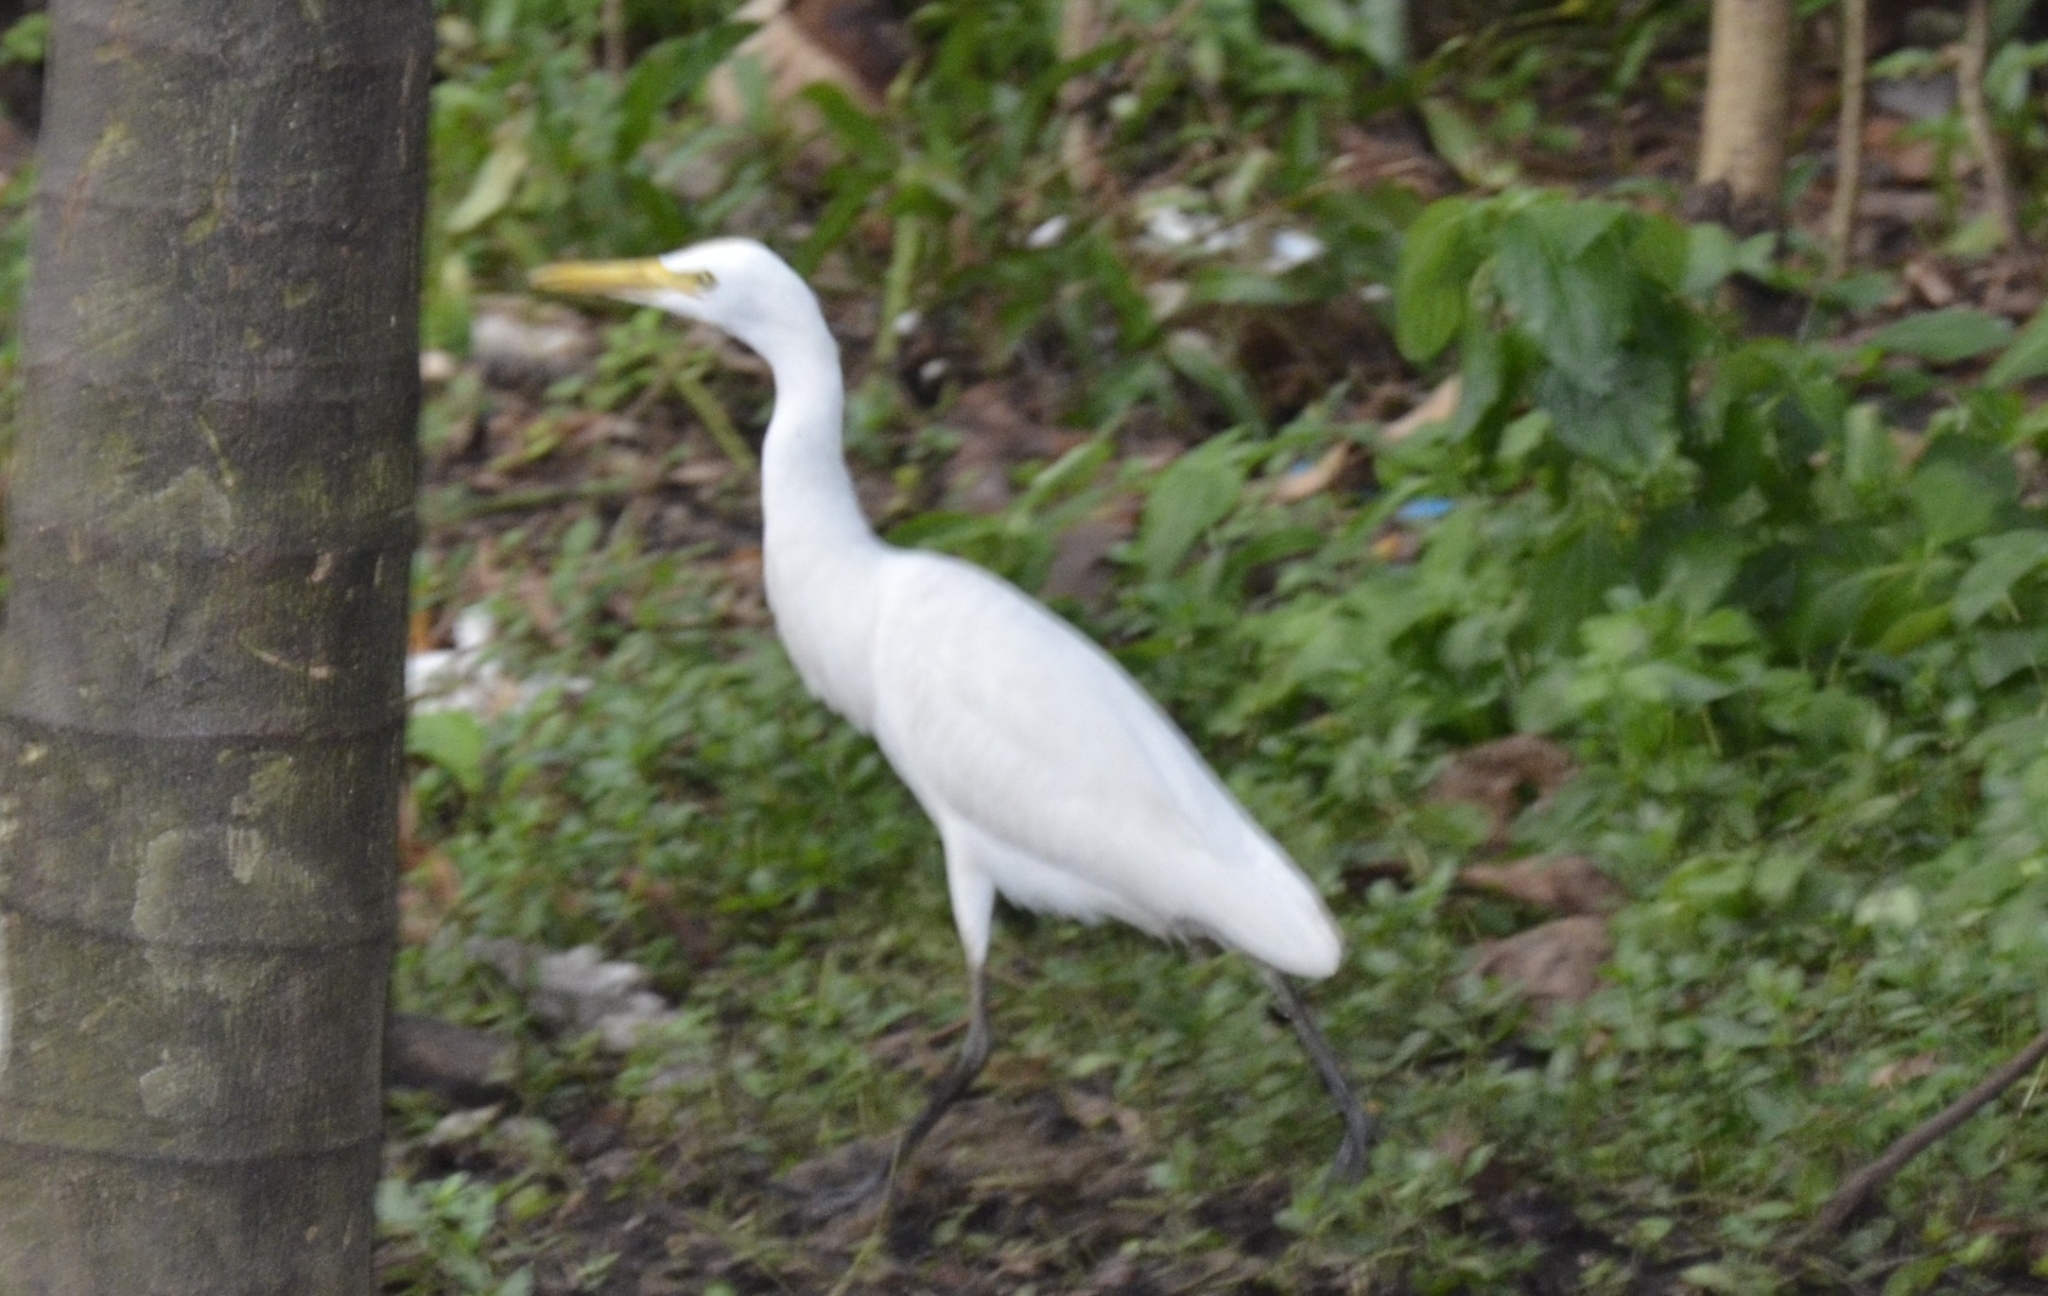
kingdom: Animalia
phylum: Chordata
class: Aves
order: Pelecaniformes
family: Ardeidae
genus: Bubulcus
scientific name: Bubulcus coromandus
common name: Eastern cattle egret
